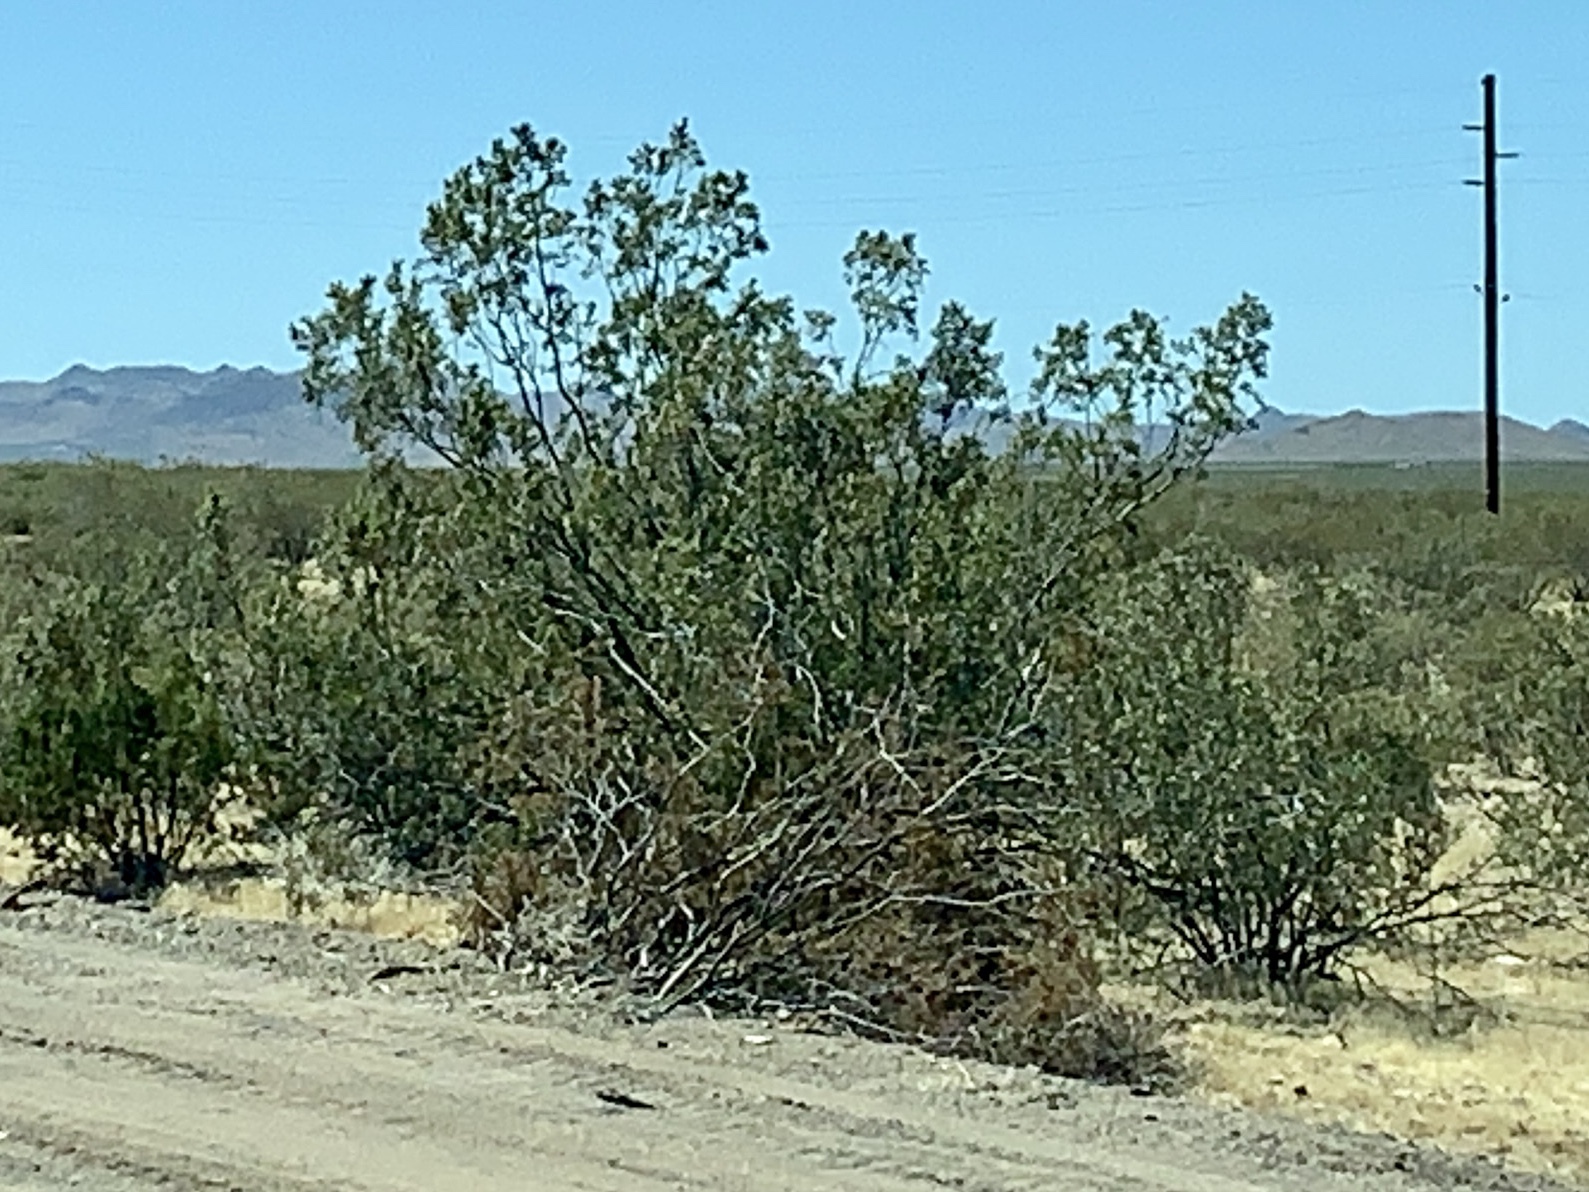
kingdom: Plantae
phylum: Tracheophyta
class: Magnoliopsida
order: Zygophyllales
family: Zygophyllaceae
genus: Larrea
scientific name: Larrea tridentata
